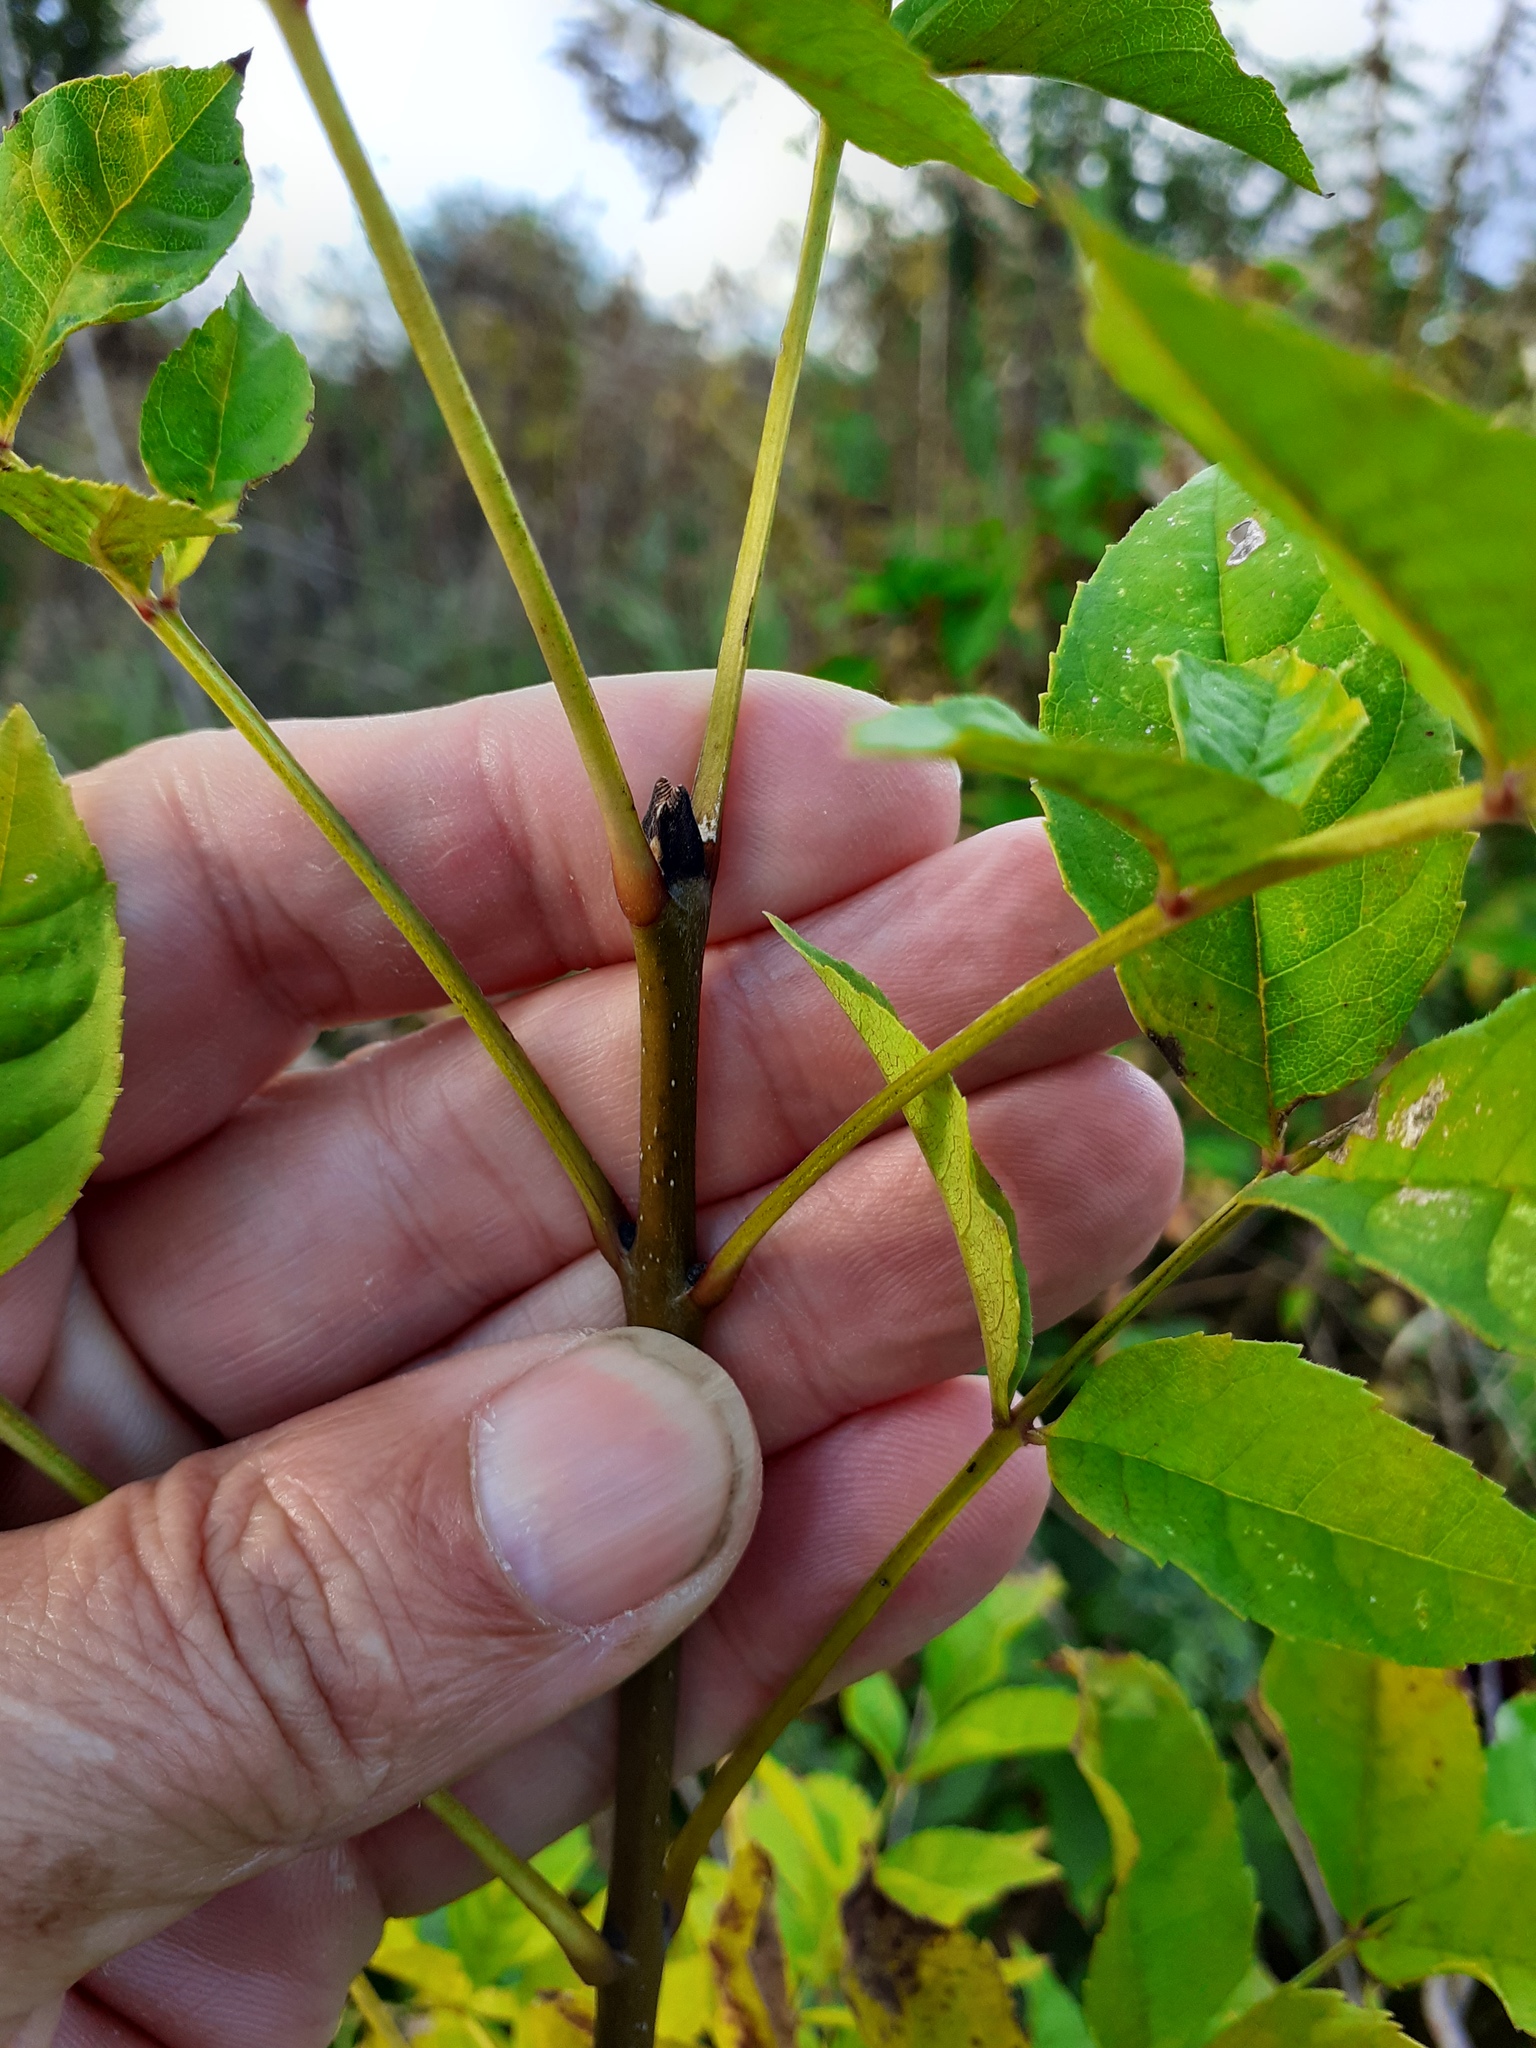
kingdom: Plantae
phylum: Tracheophyta
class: Magnoliopsida
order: Lamiales
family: Oleaceae
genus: Fraxinus
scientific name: Fraxinus excelsior
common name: European ash
